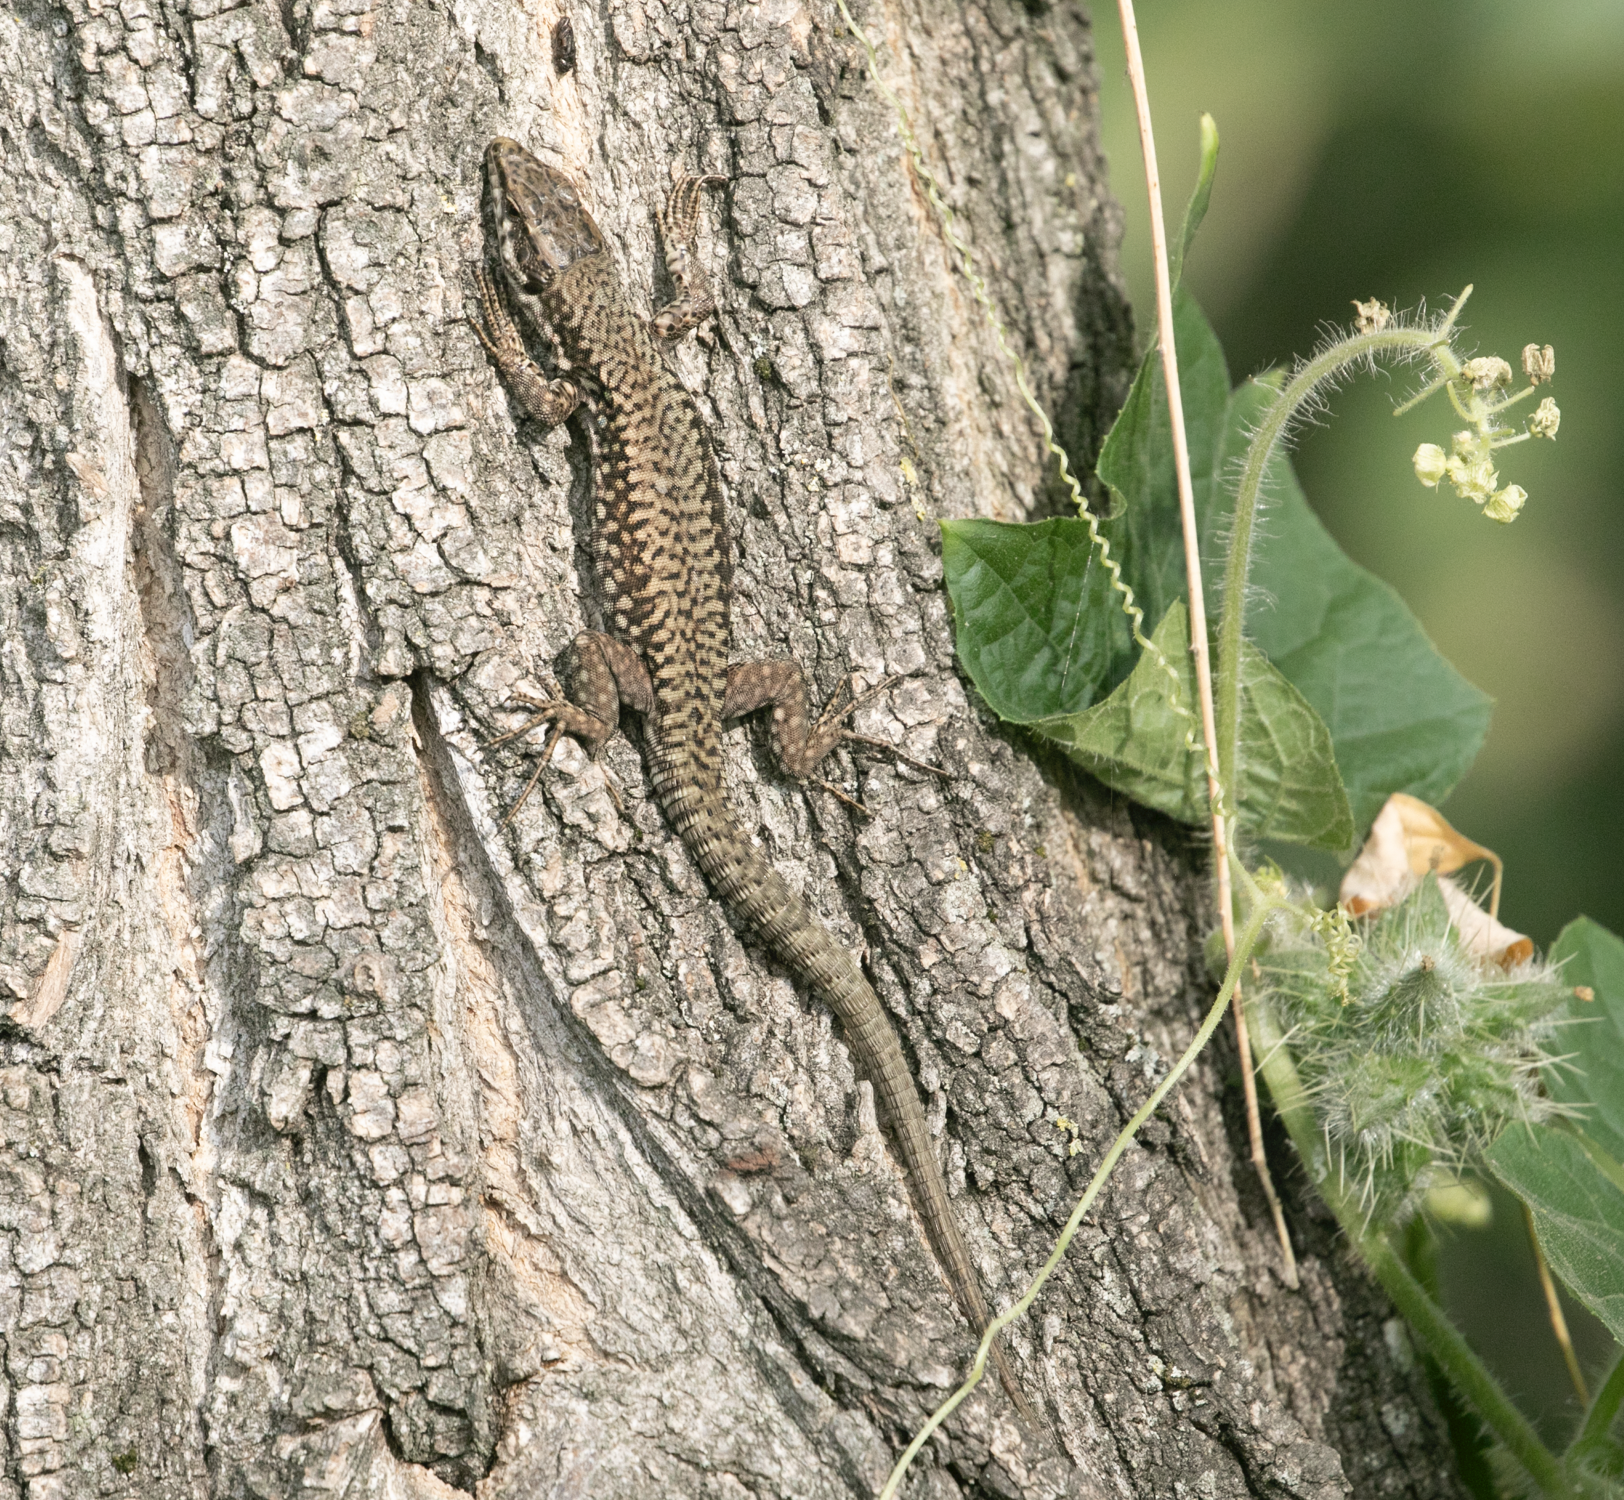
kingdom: Animalia
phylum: Chordata
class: Squamata
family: Lacertidae
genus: Podarcis
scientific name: Podarcis muralis
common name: Common wall lizard
